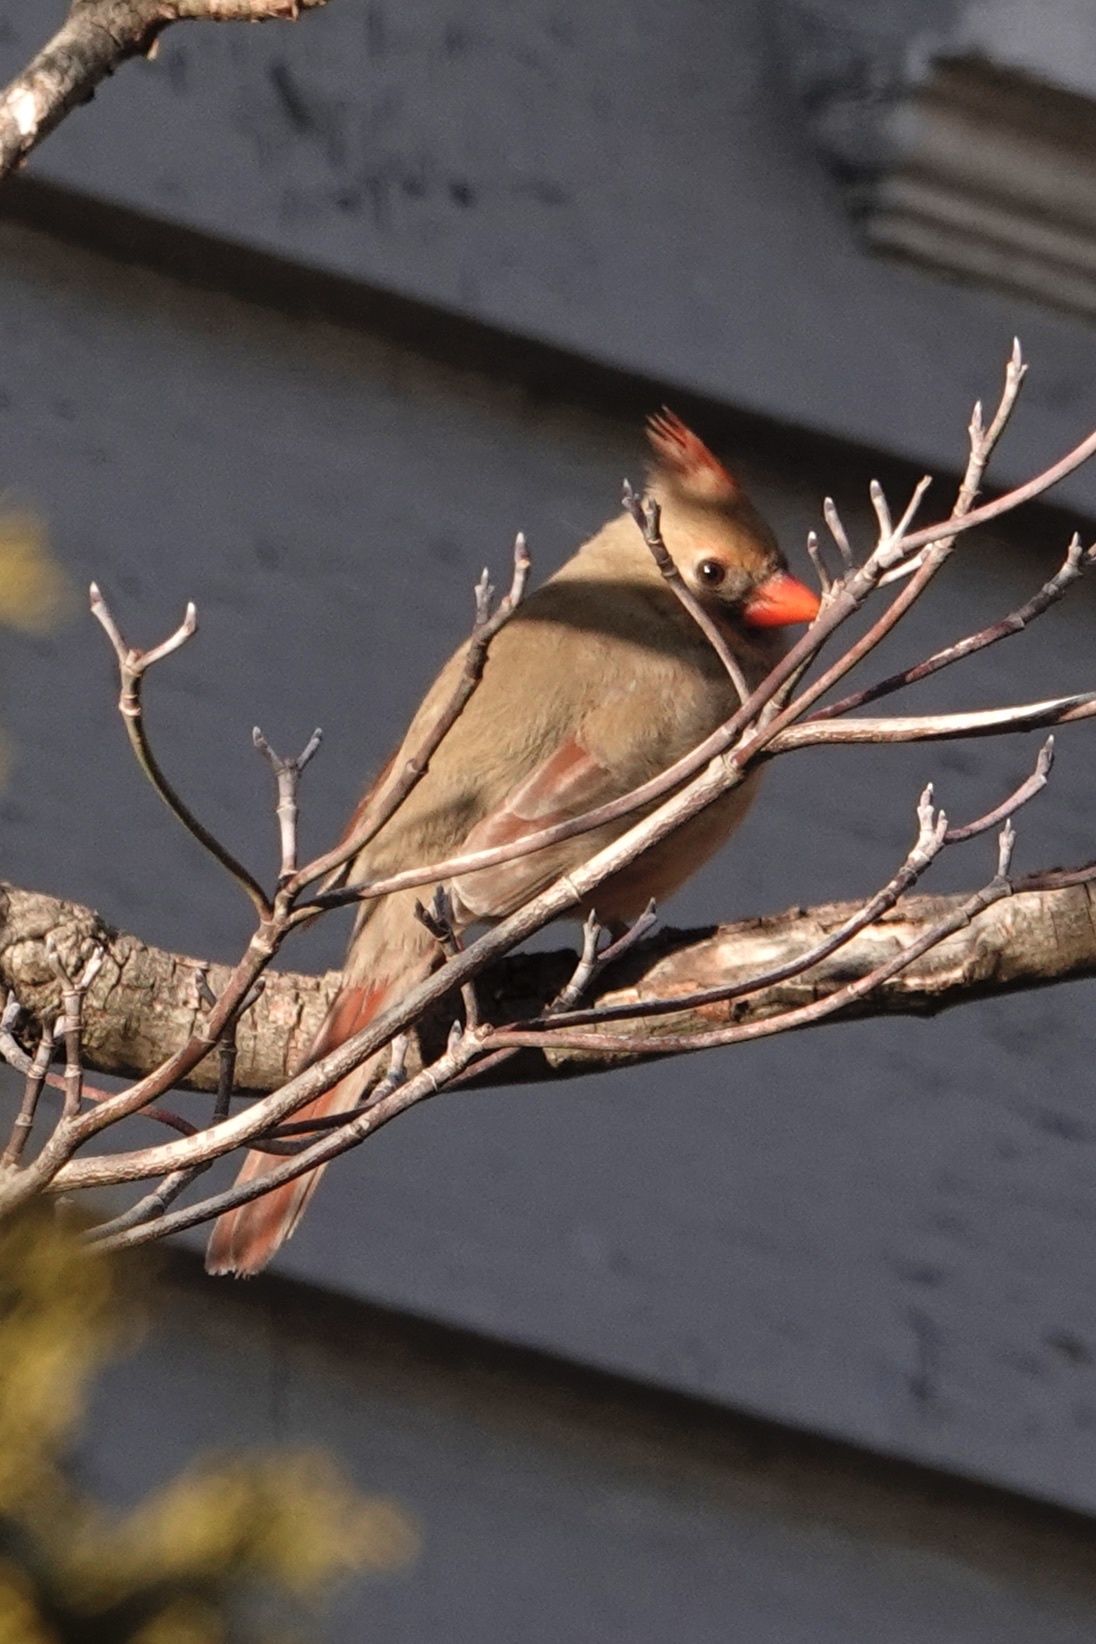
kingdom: Animalia
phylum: Chordata
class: Aves
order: Passeriformes
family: Cardinalidae
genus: Cardinalis
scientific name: Cardinalis cardinalis
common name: Northern cardinal
